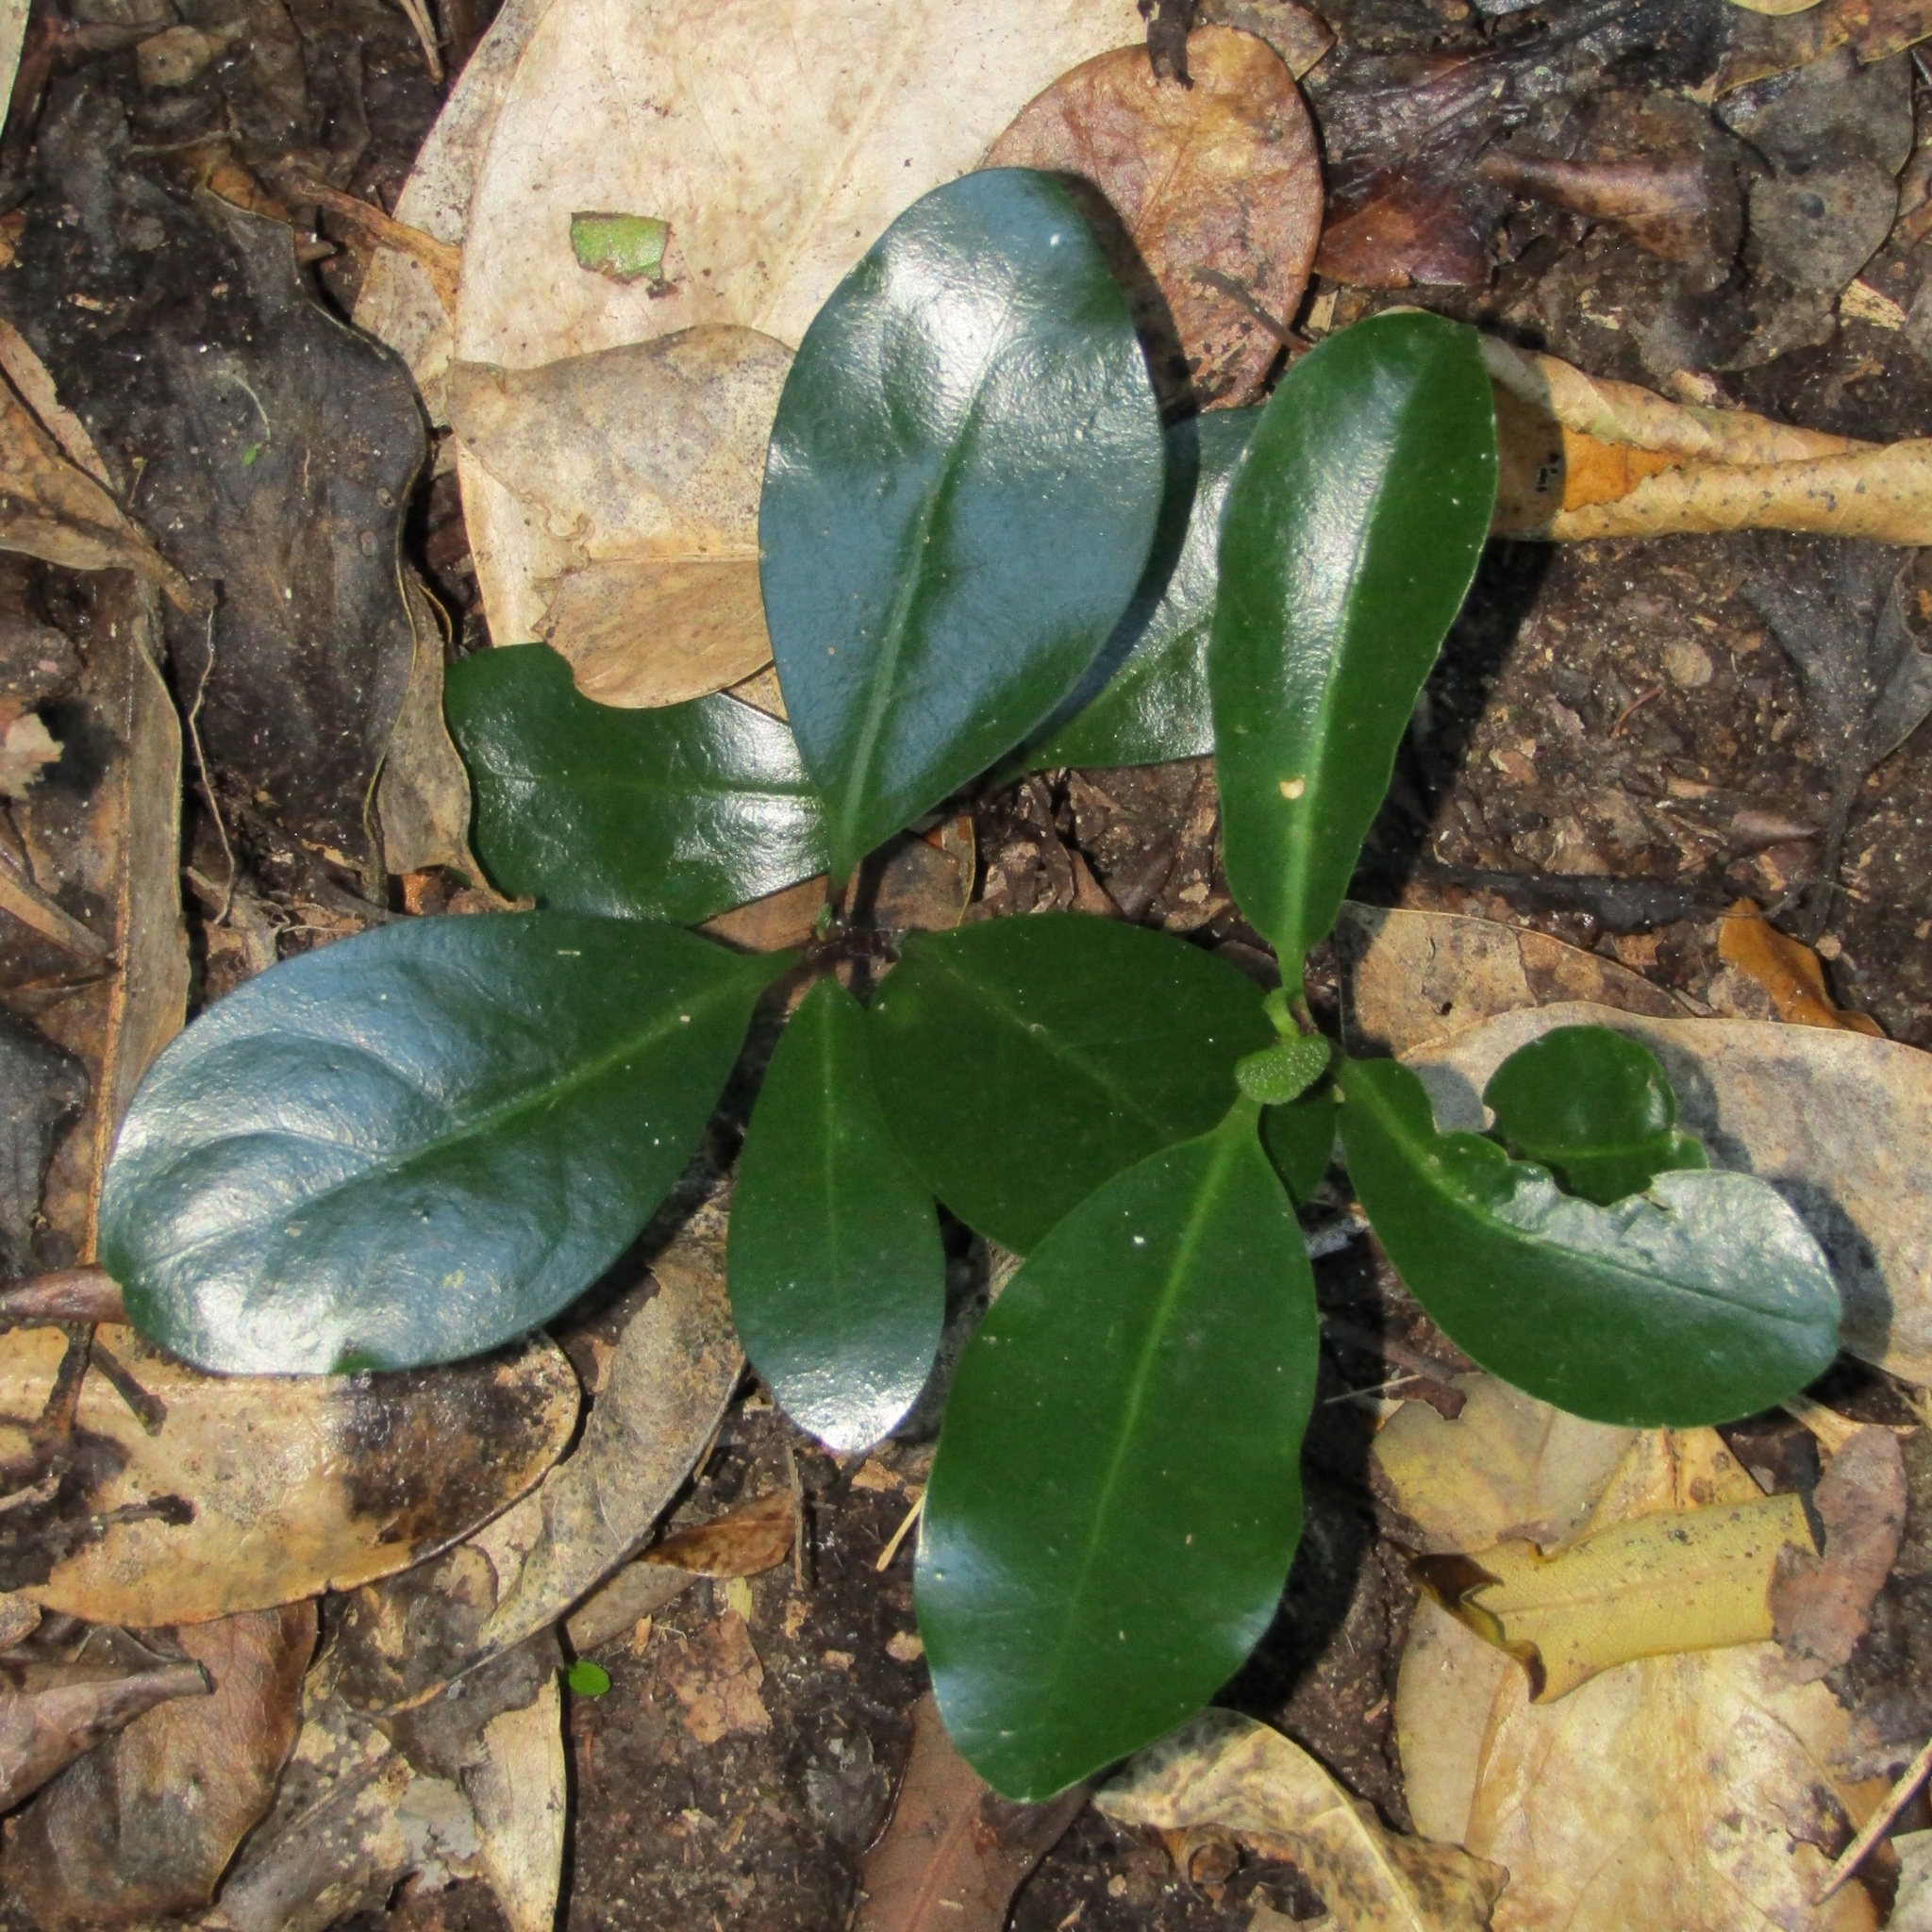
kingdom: Plantae
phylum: Tracheophyta
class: Magnoliopsida
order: Cucurbitales
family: Corynocarpaceae
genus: Corynocarpus
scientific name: Corynocarpus laevigatus
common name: New zealand laurel
